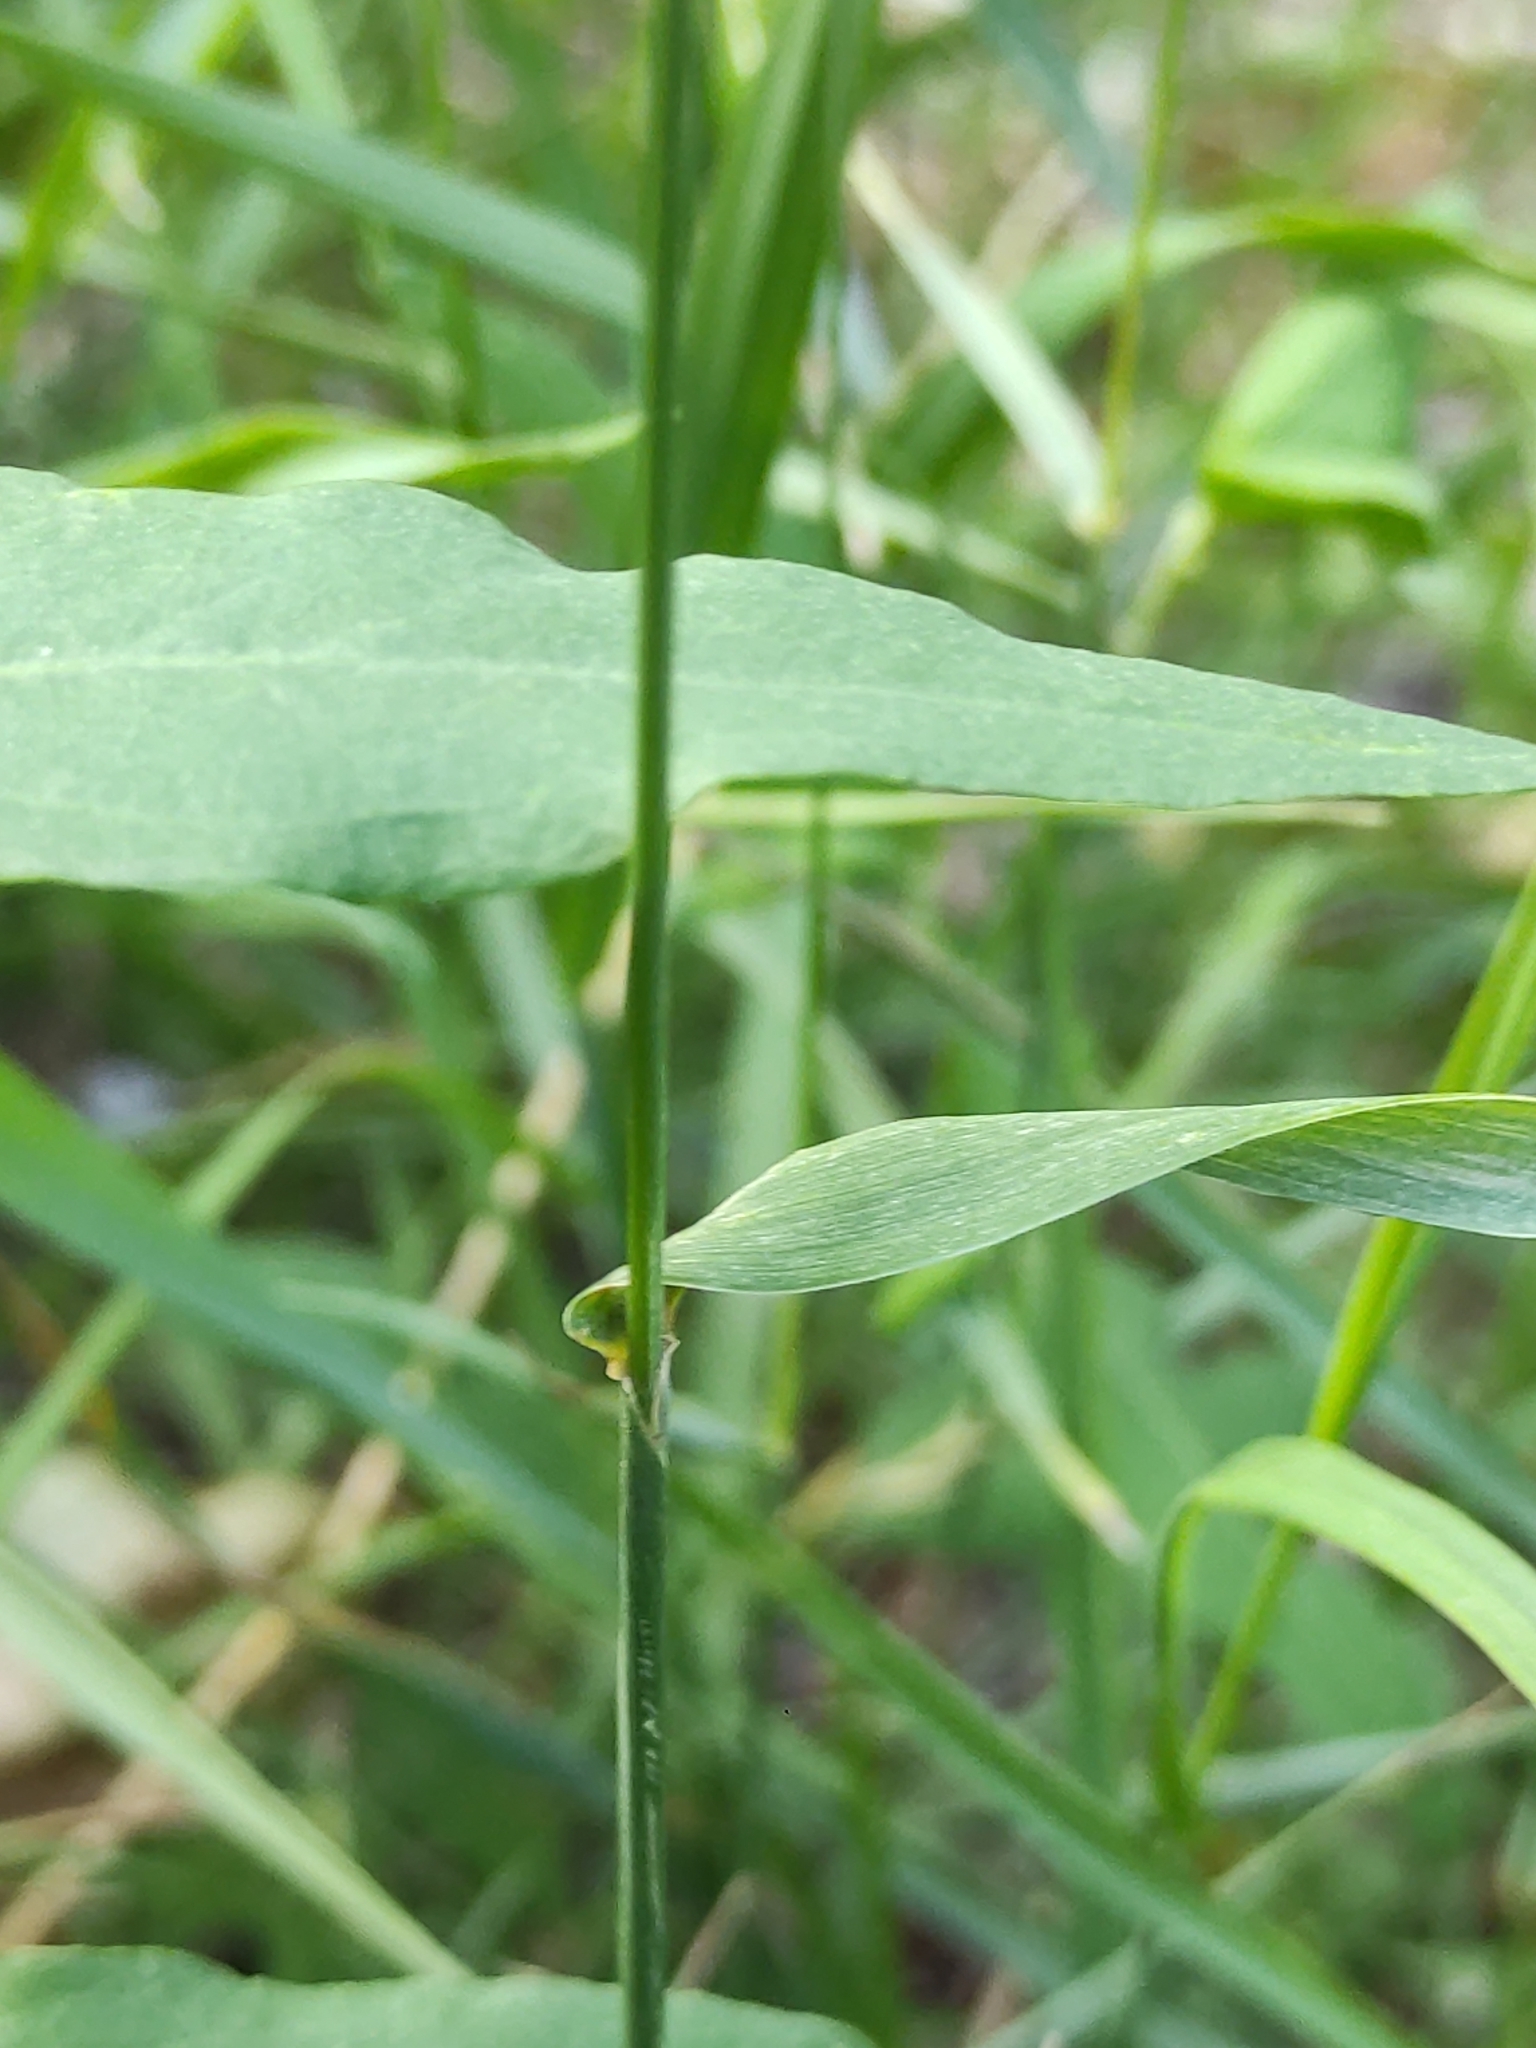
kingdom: Plantae
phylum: Tracheophyta
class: Liliopsida
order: Poales
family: Poaceae
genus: Lolium
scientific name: Lolium multiflorum
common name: Annual ryegrass
